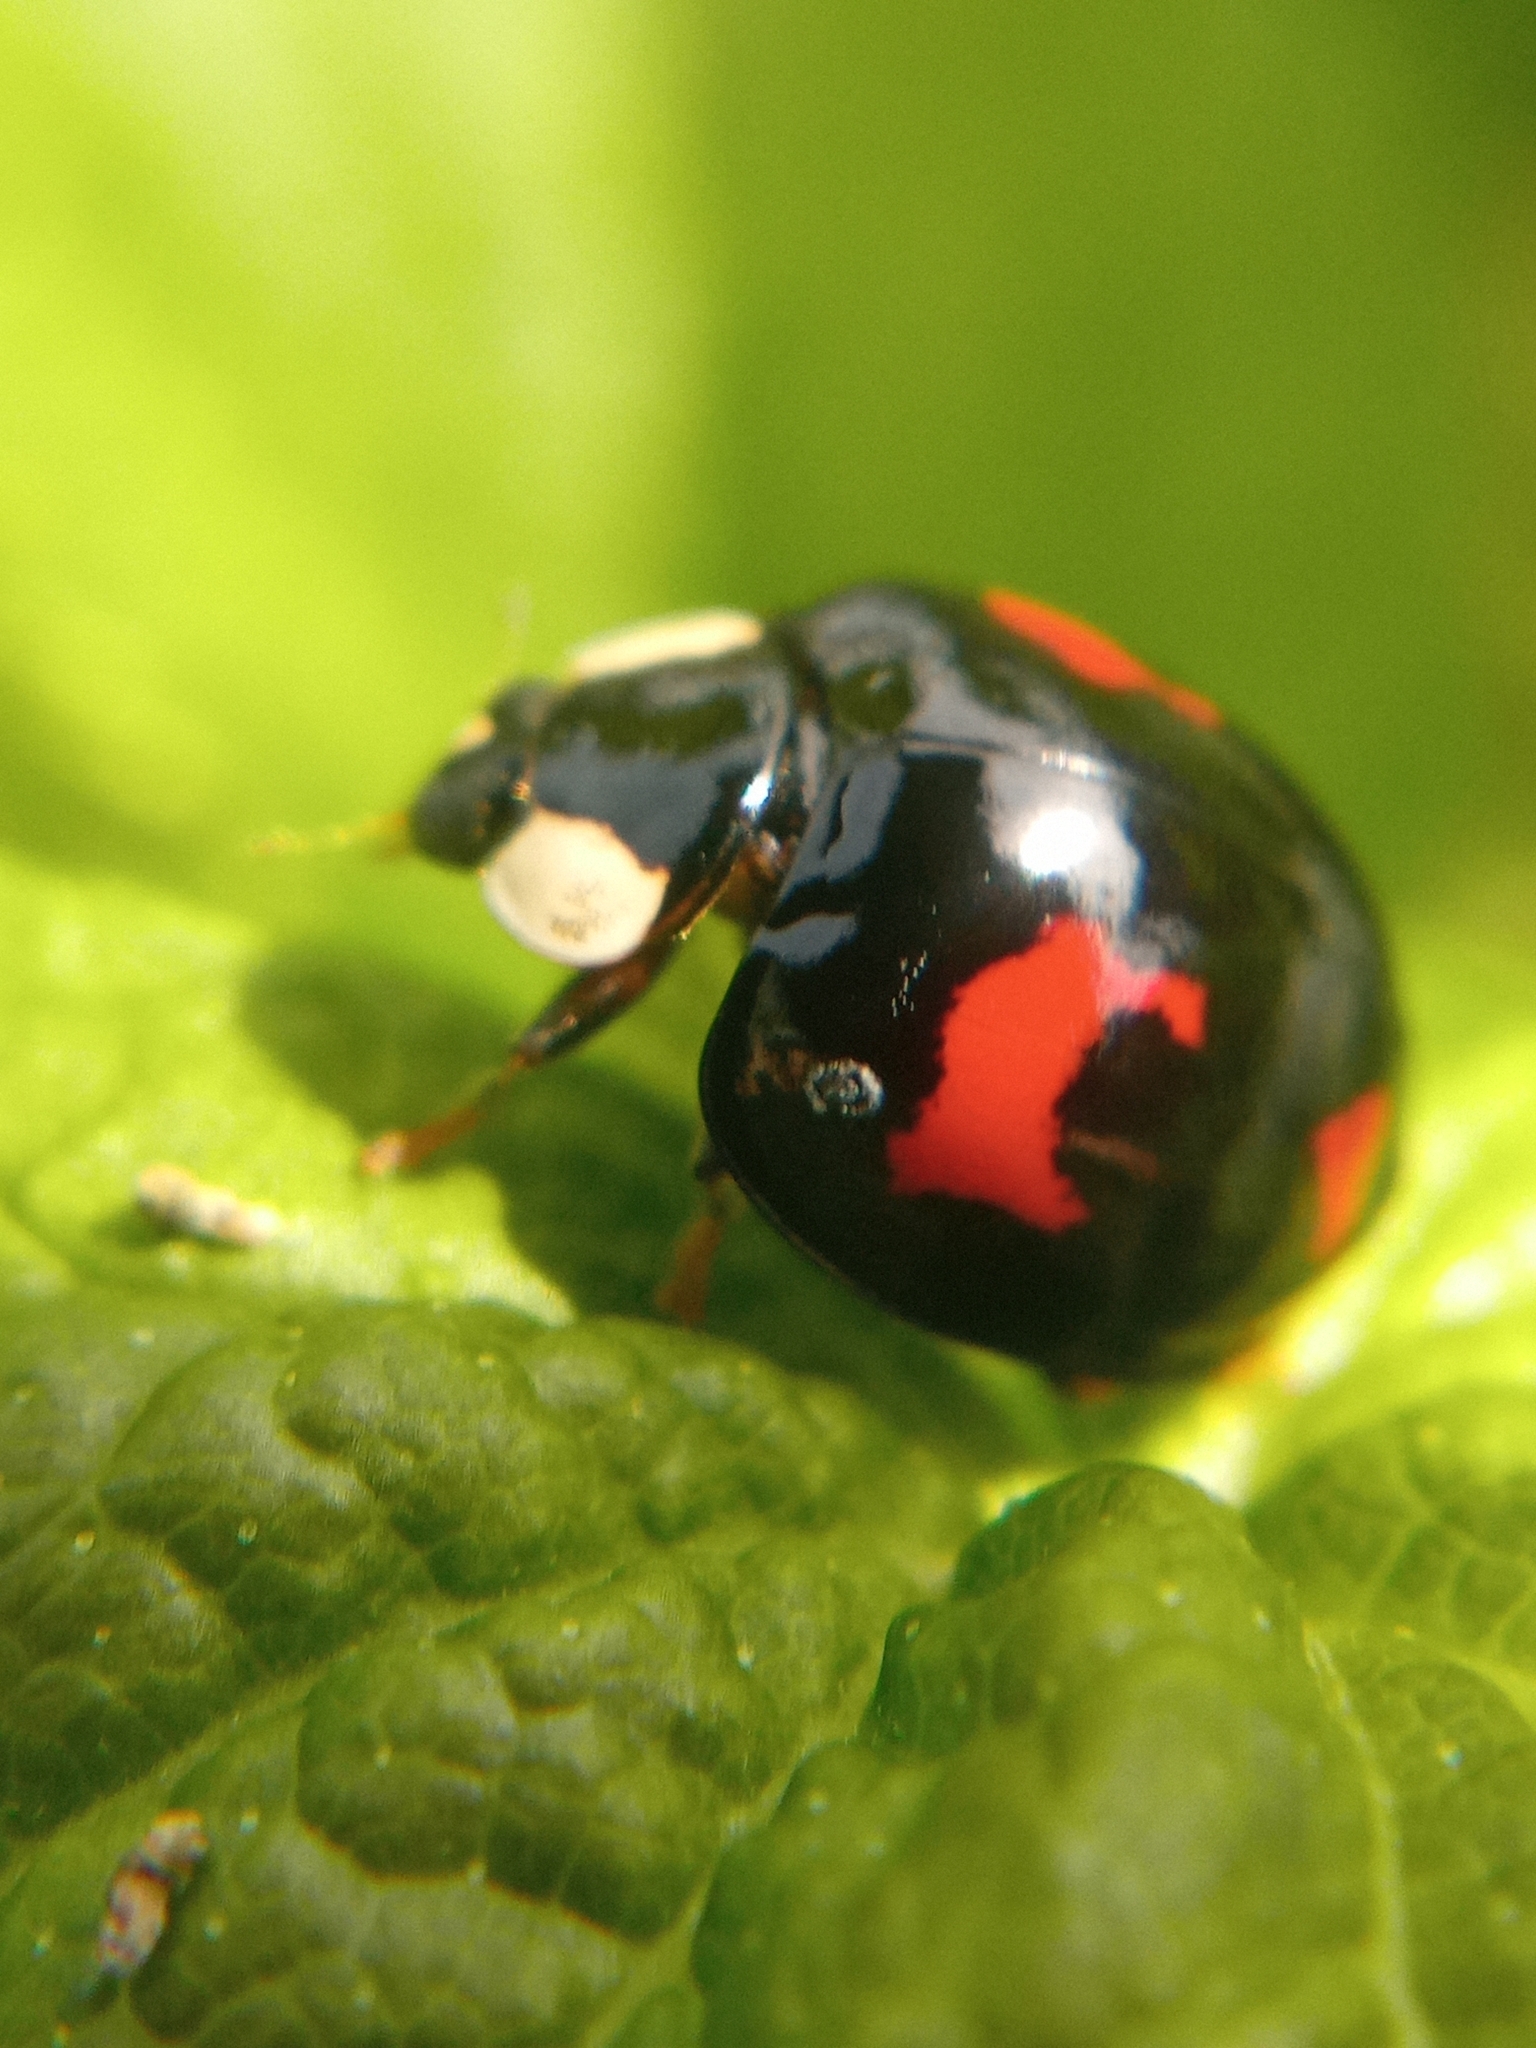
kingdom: Animalia
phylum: Arthropoda
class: Insecta
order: Coleoptera
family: Coccinellidae
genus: Harmonia
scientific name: Harmonia axyridis
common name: Harlequin ladybird
